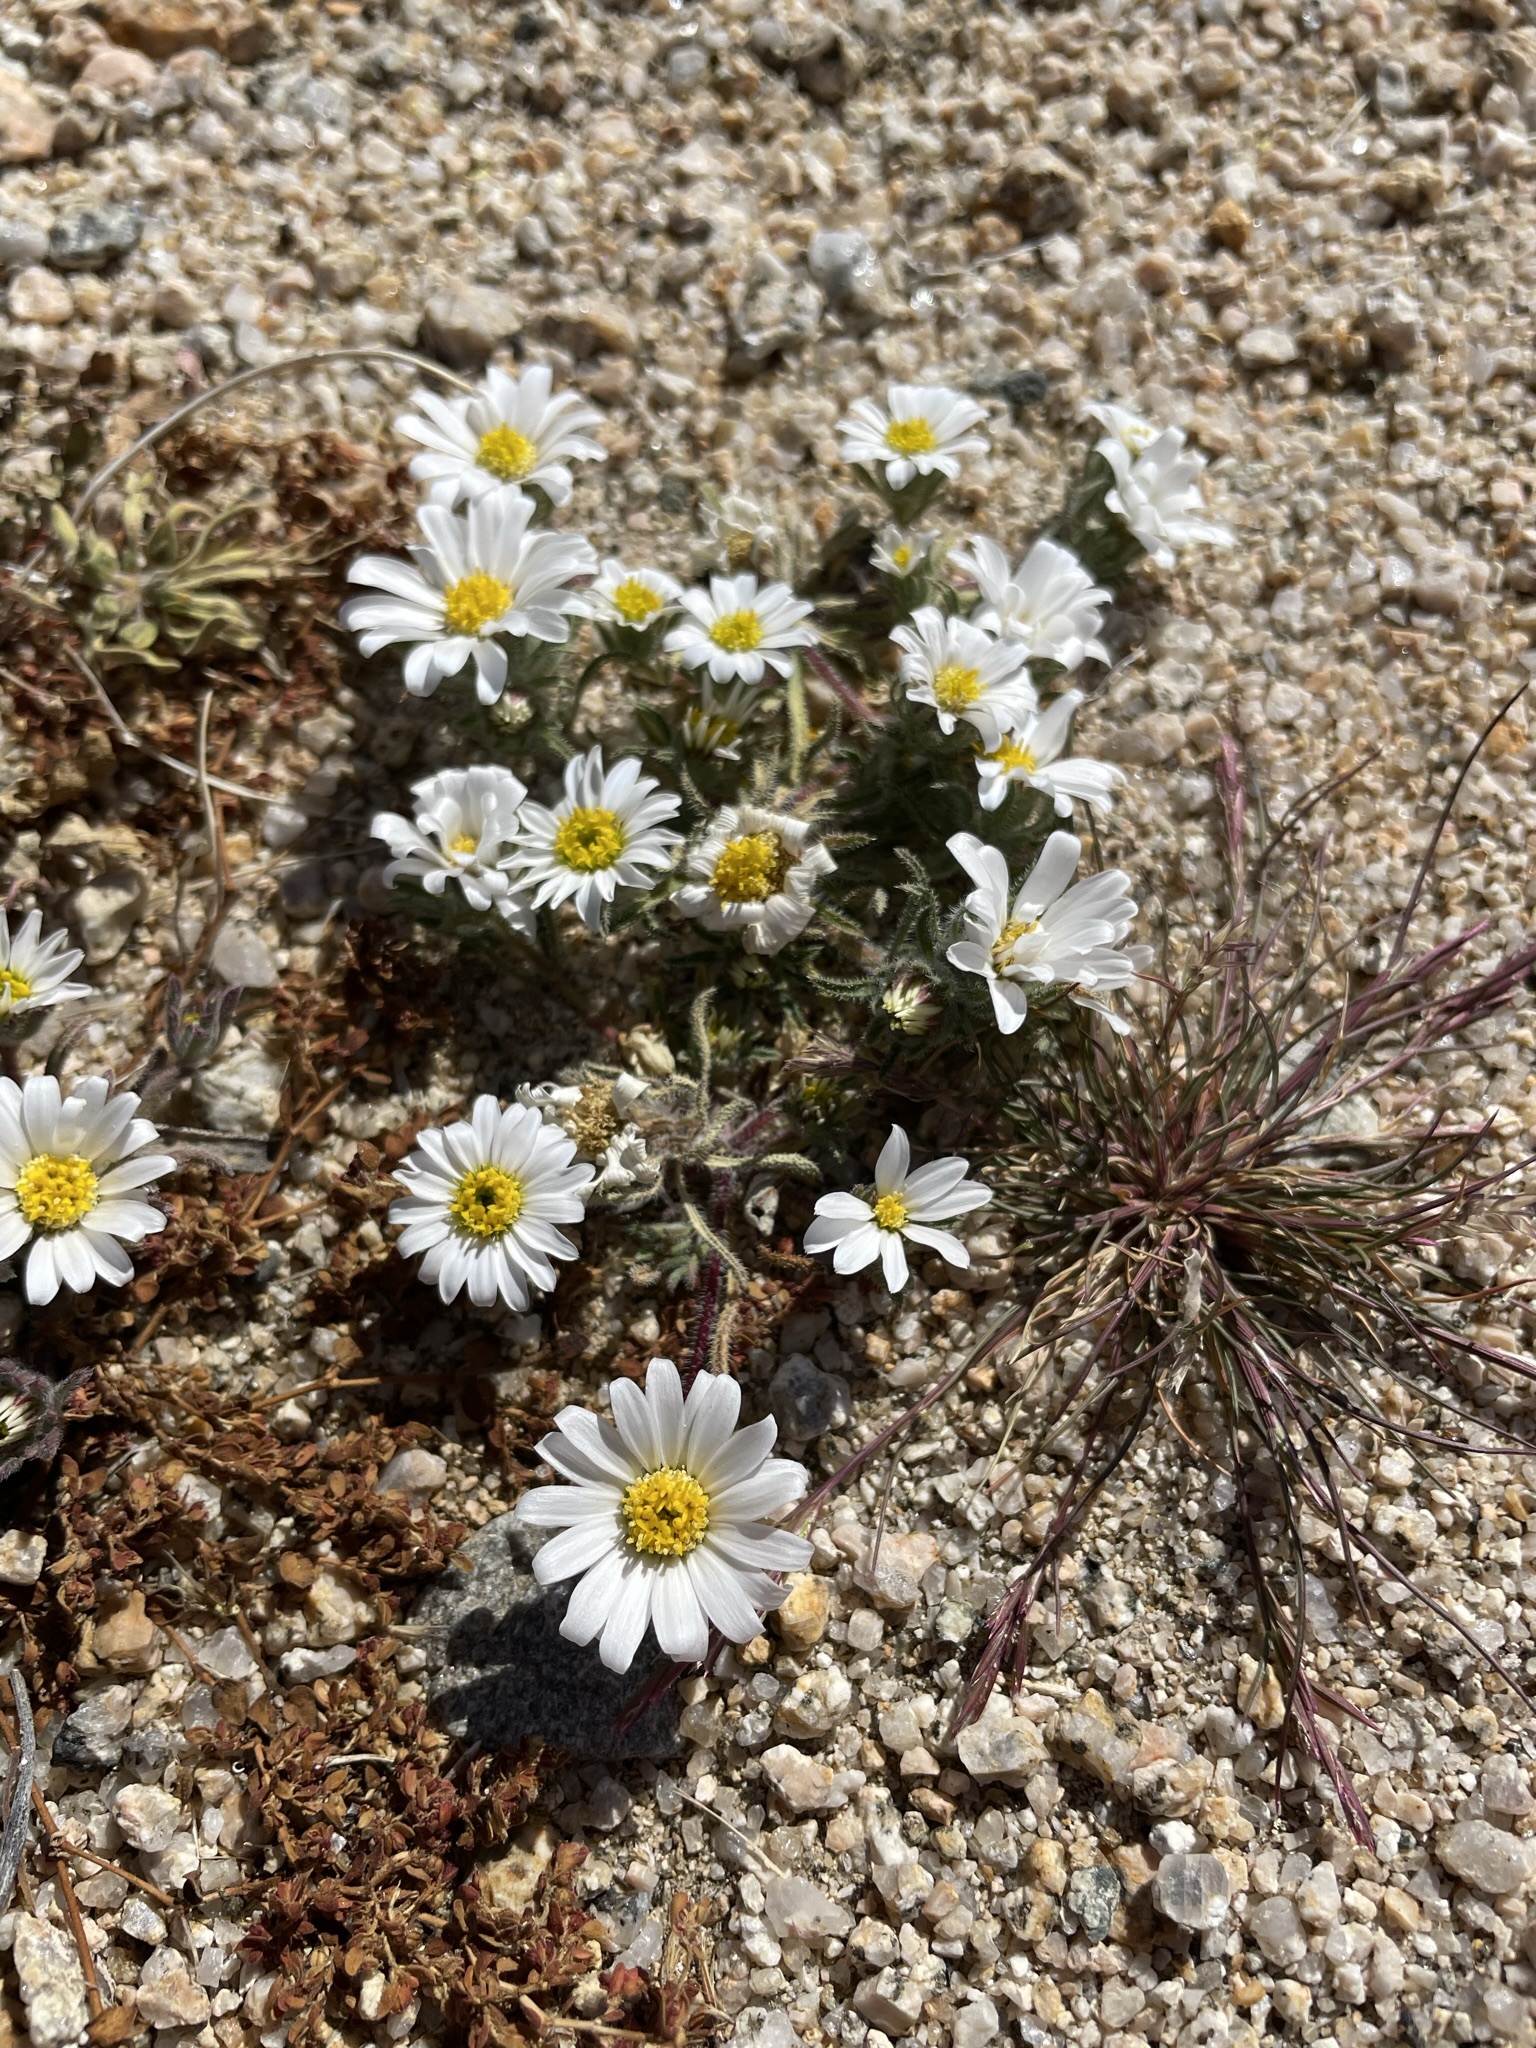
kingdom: Plantae
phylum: Tracheophyta
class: Magnoliopsida
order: Asterales
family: Asteraceae
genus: Monoptilon
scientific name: Monoptilon bellioides
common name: Bristly desertstar
